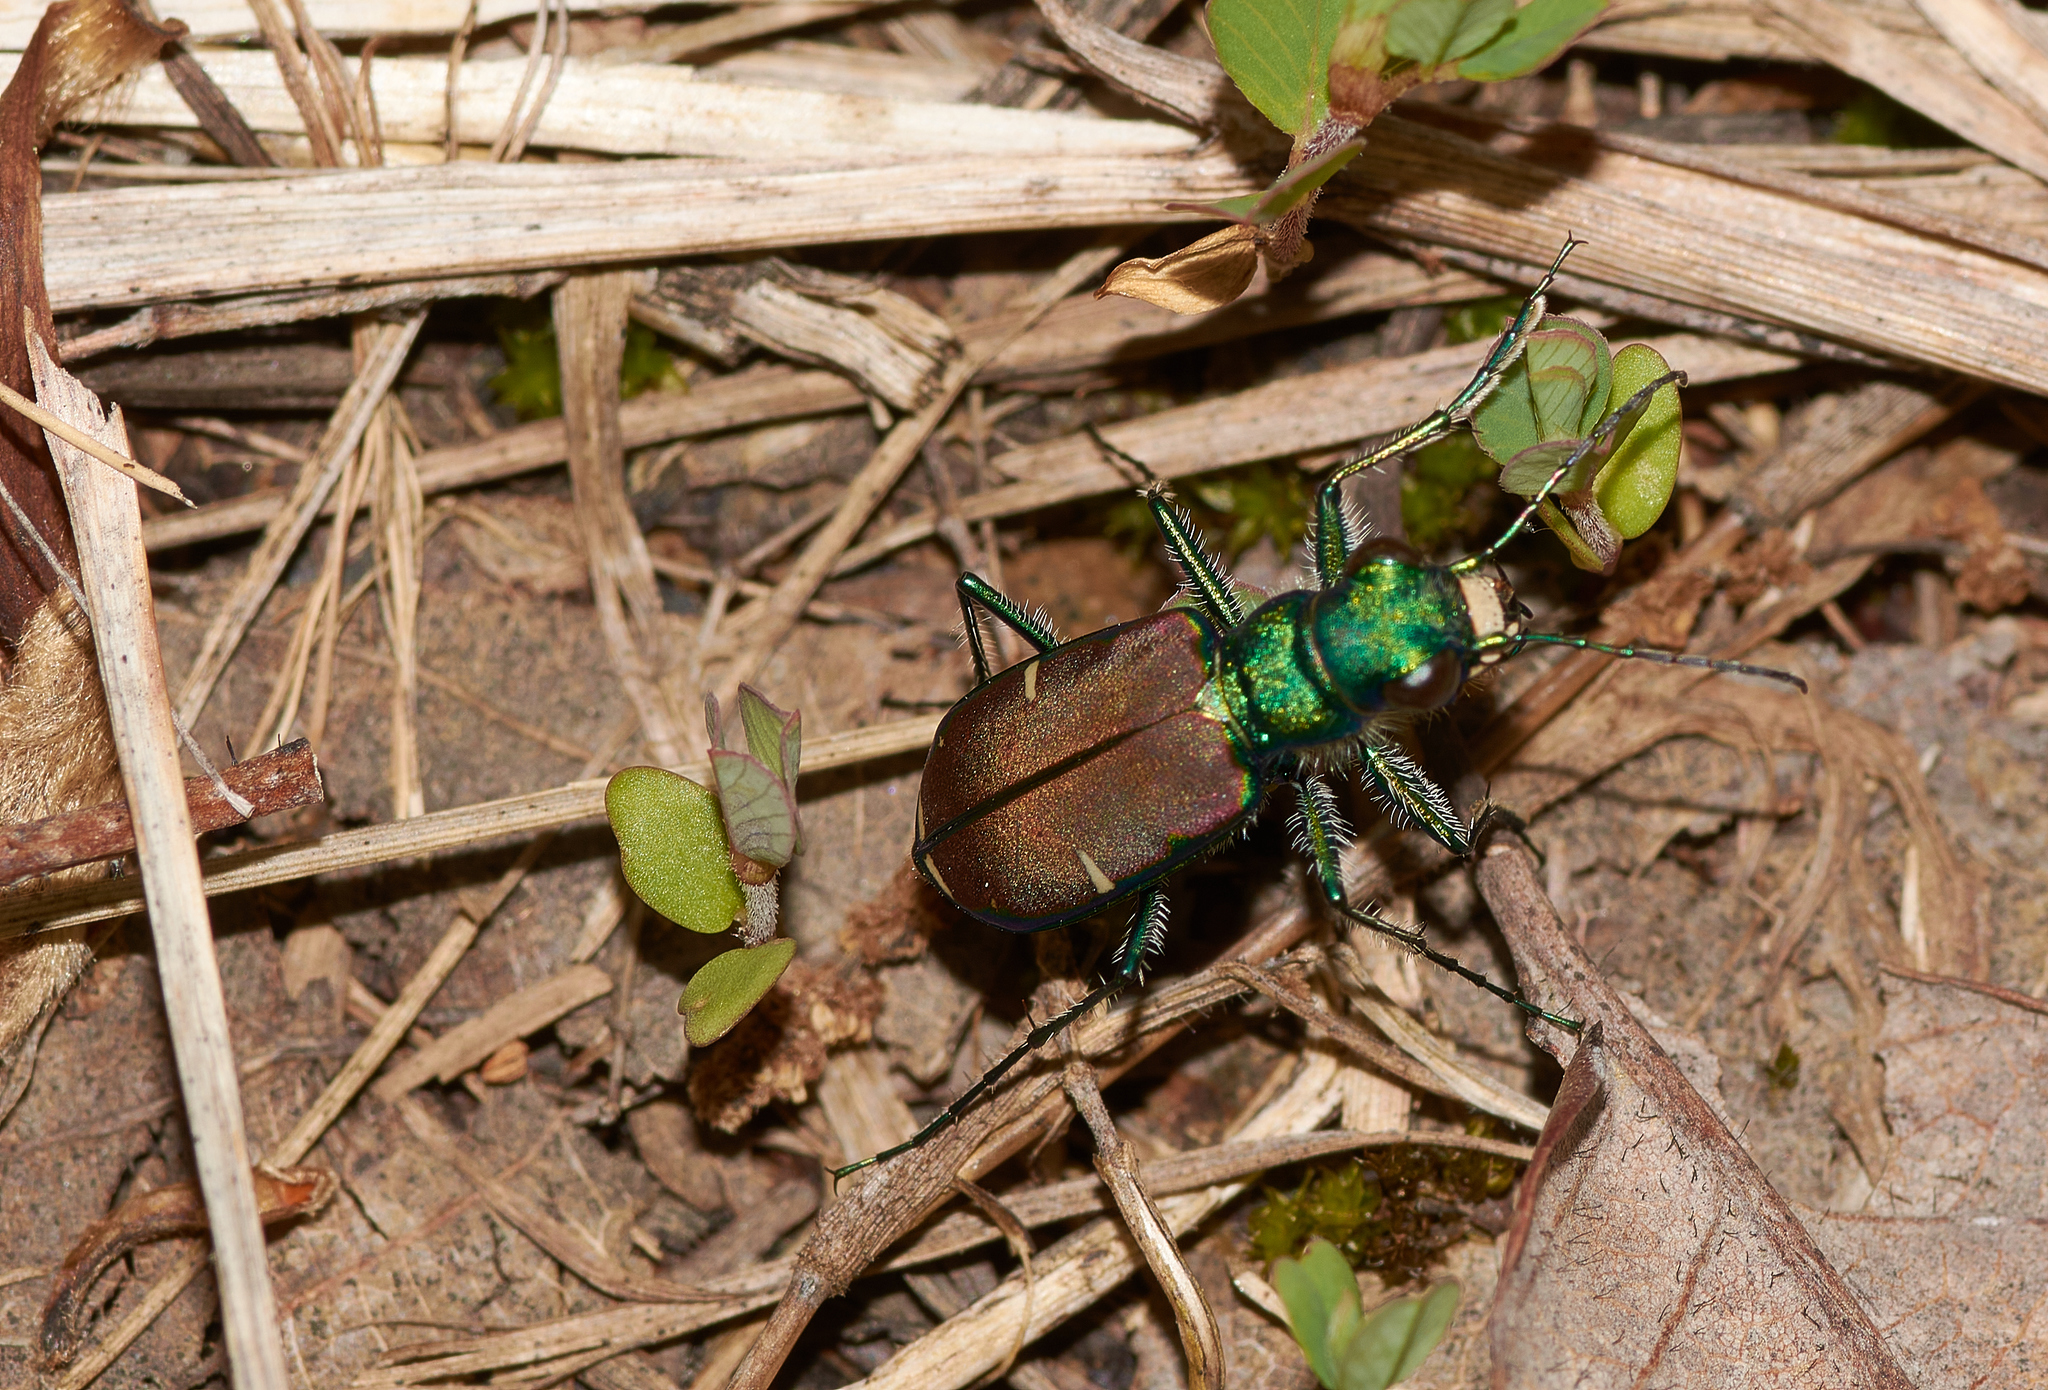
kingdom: Animalia
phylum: Arthropoda
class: Insecta
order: Coleoptera
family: Carabidae
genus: Cicindela
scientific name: Cicindela splendida
